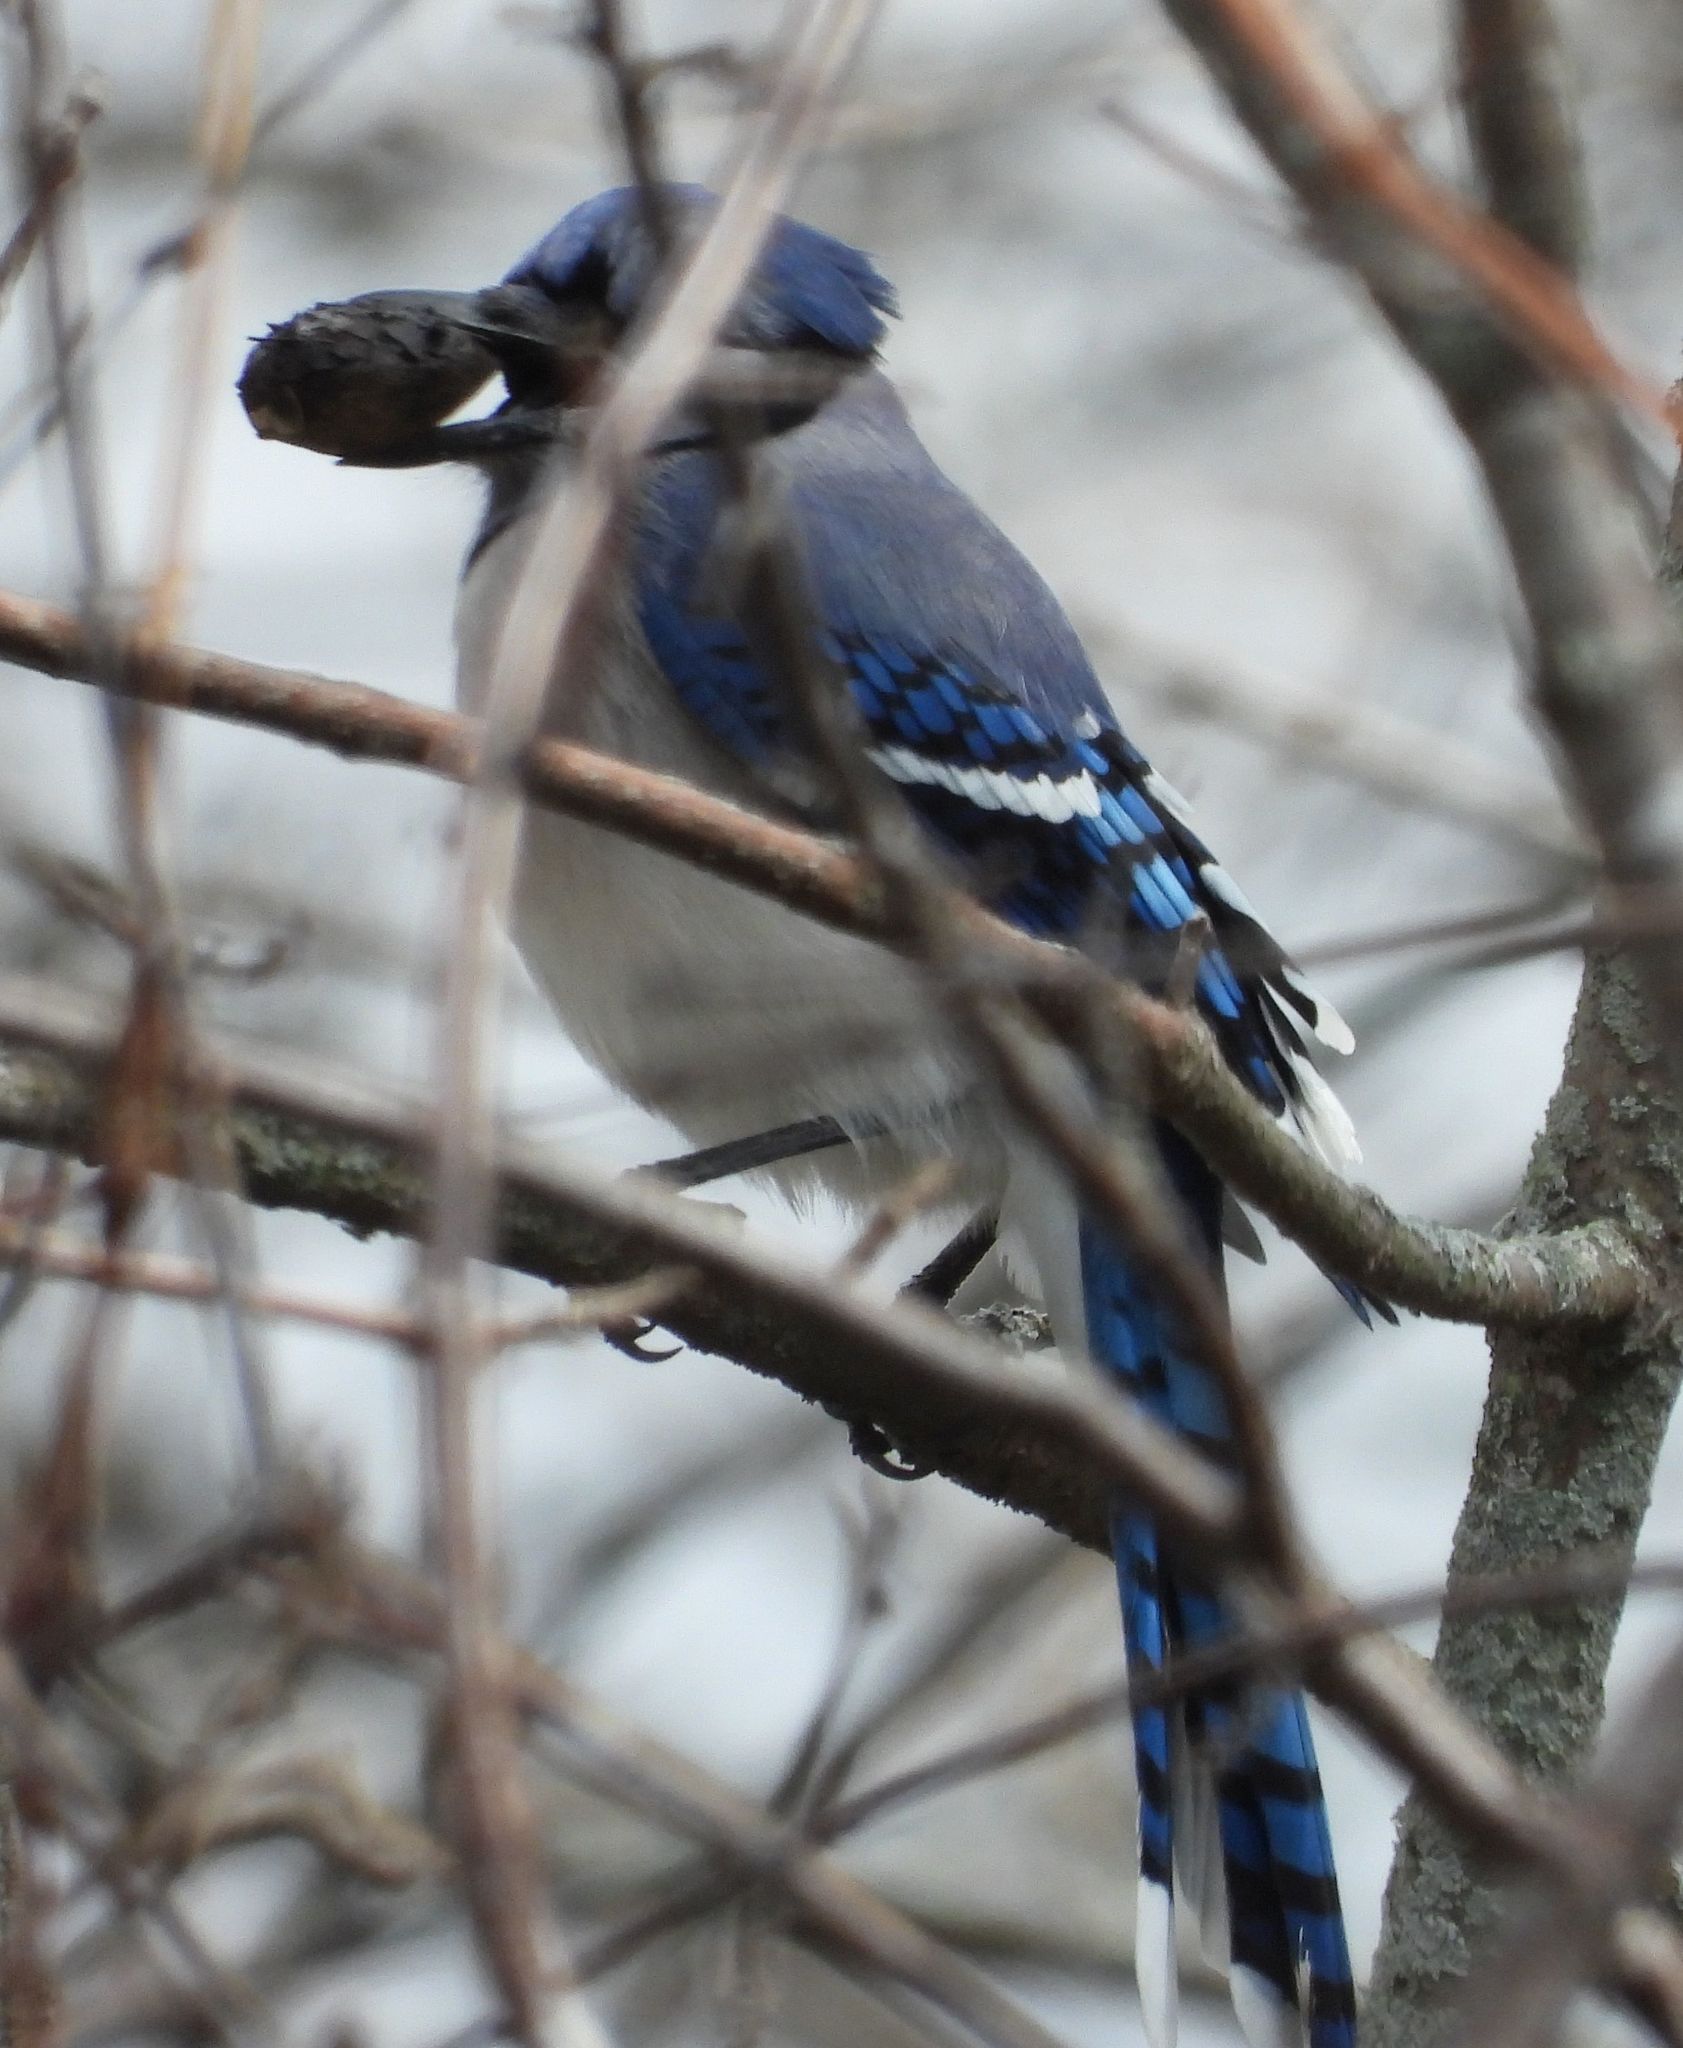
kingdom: Animalia
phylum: Chordata
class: Aves
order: Passeriformes
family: Corvidae
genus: Cyanocitta
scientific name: Cyanocitta cristata
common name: Blue jay
